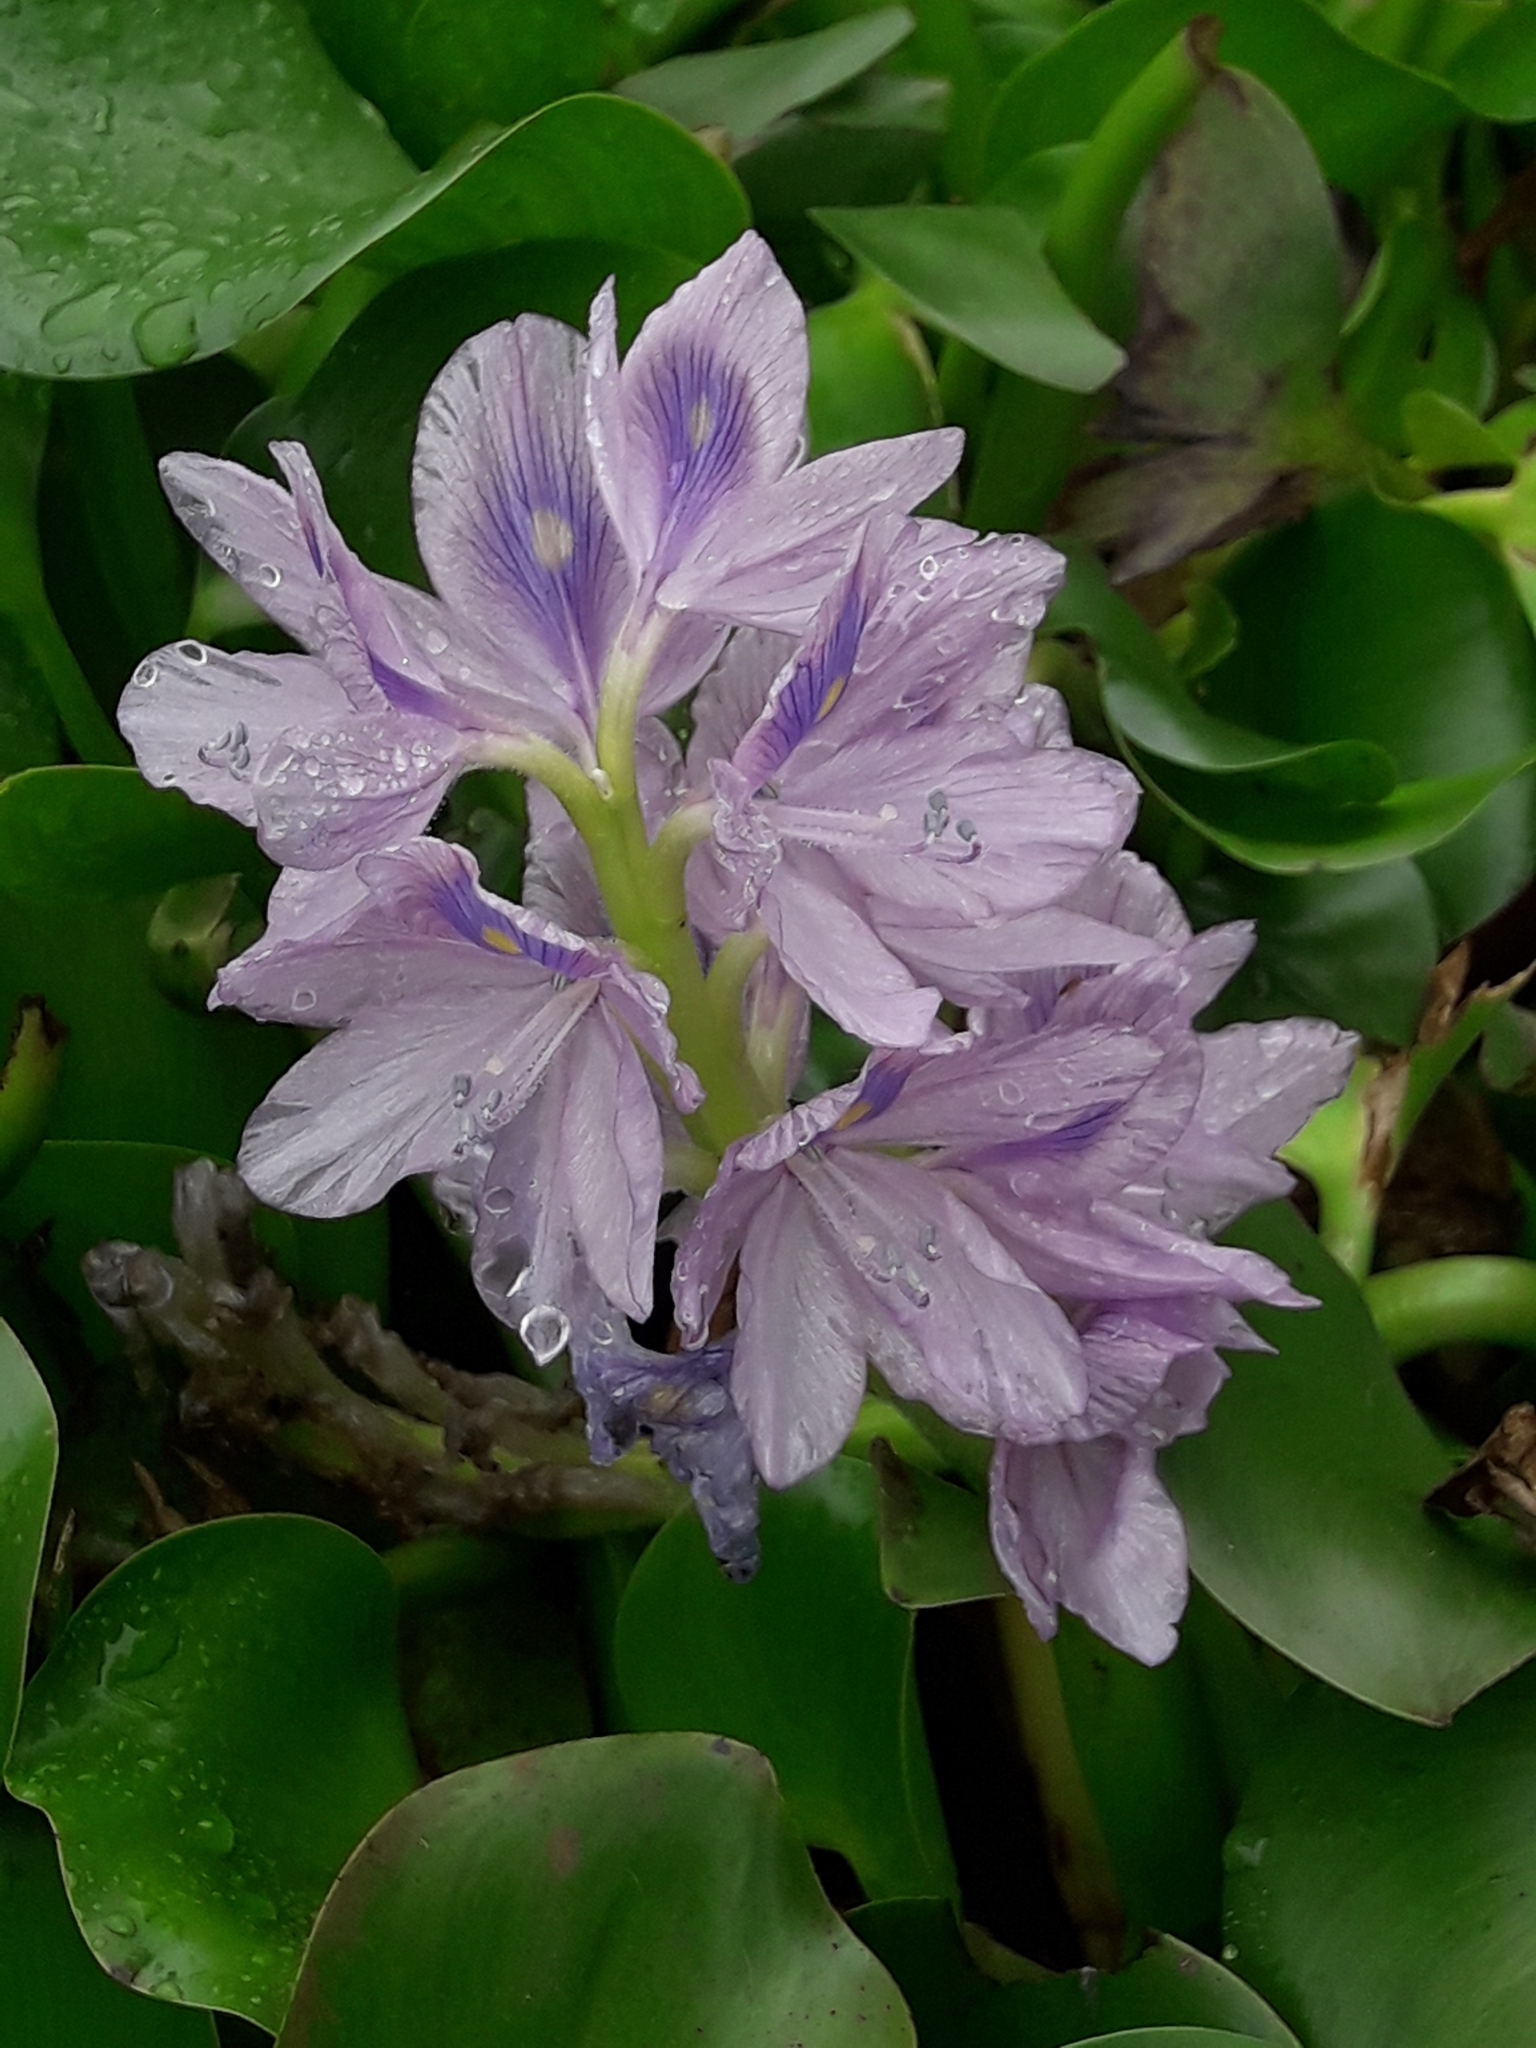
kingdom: Plantae
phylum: Tracheophyta
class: Liliopsida
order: Commelinales
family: Pontederiaceae
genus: Pontederia
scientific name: Pontederia crassipes
